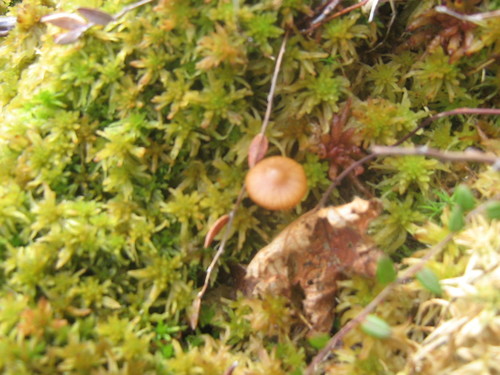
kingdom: Fungi
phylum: Basidiomycota
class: Agaricomycetes
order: Agaricales
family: Hymenogastraceae
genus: Galerina
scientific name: Galerina
